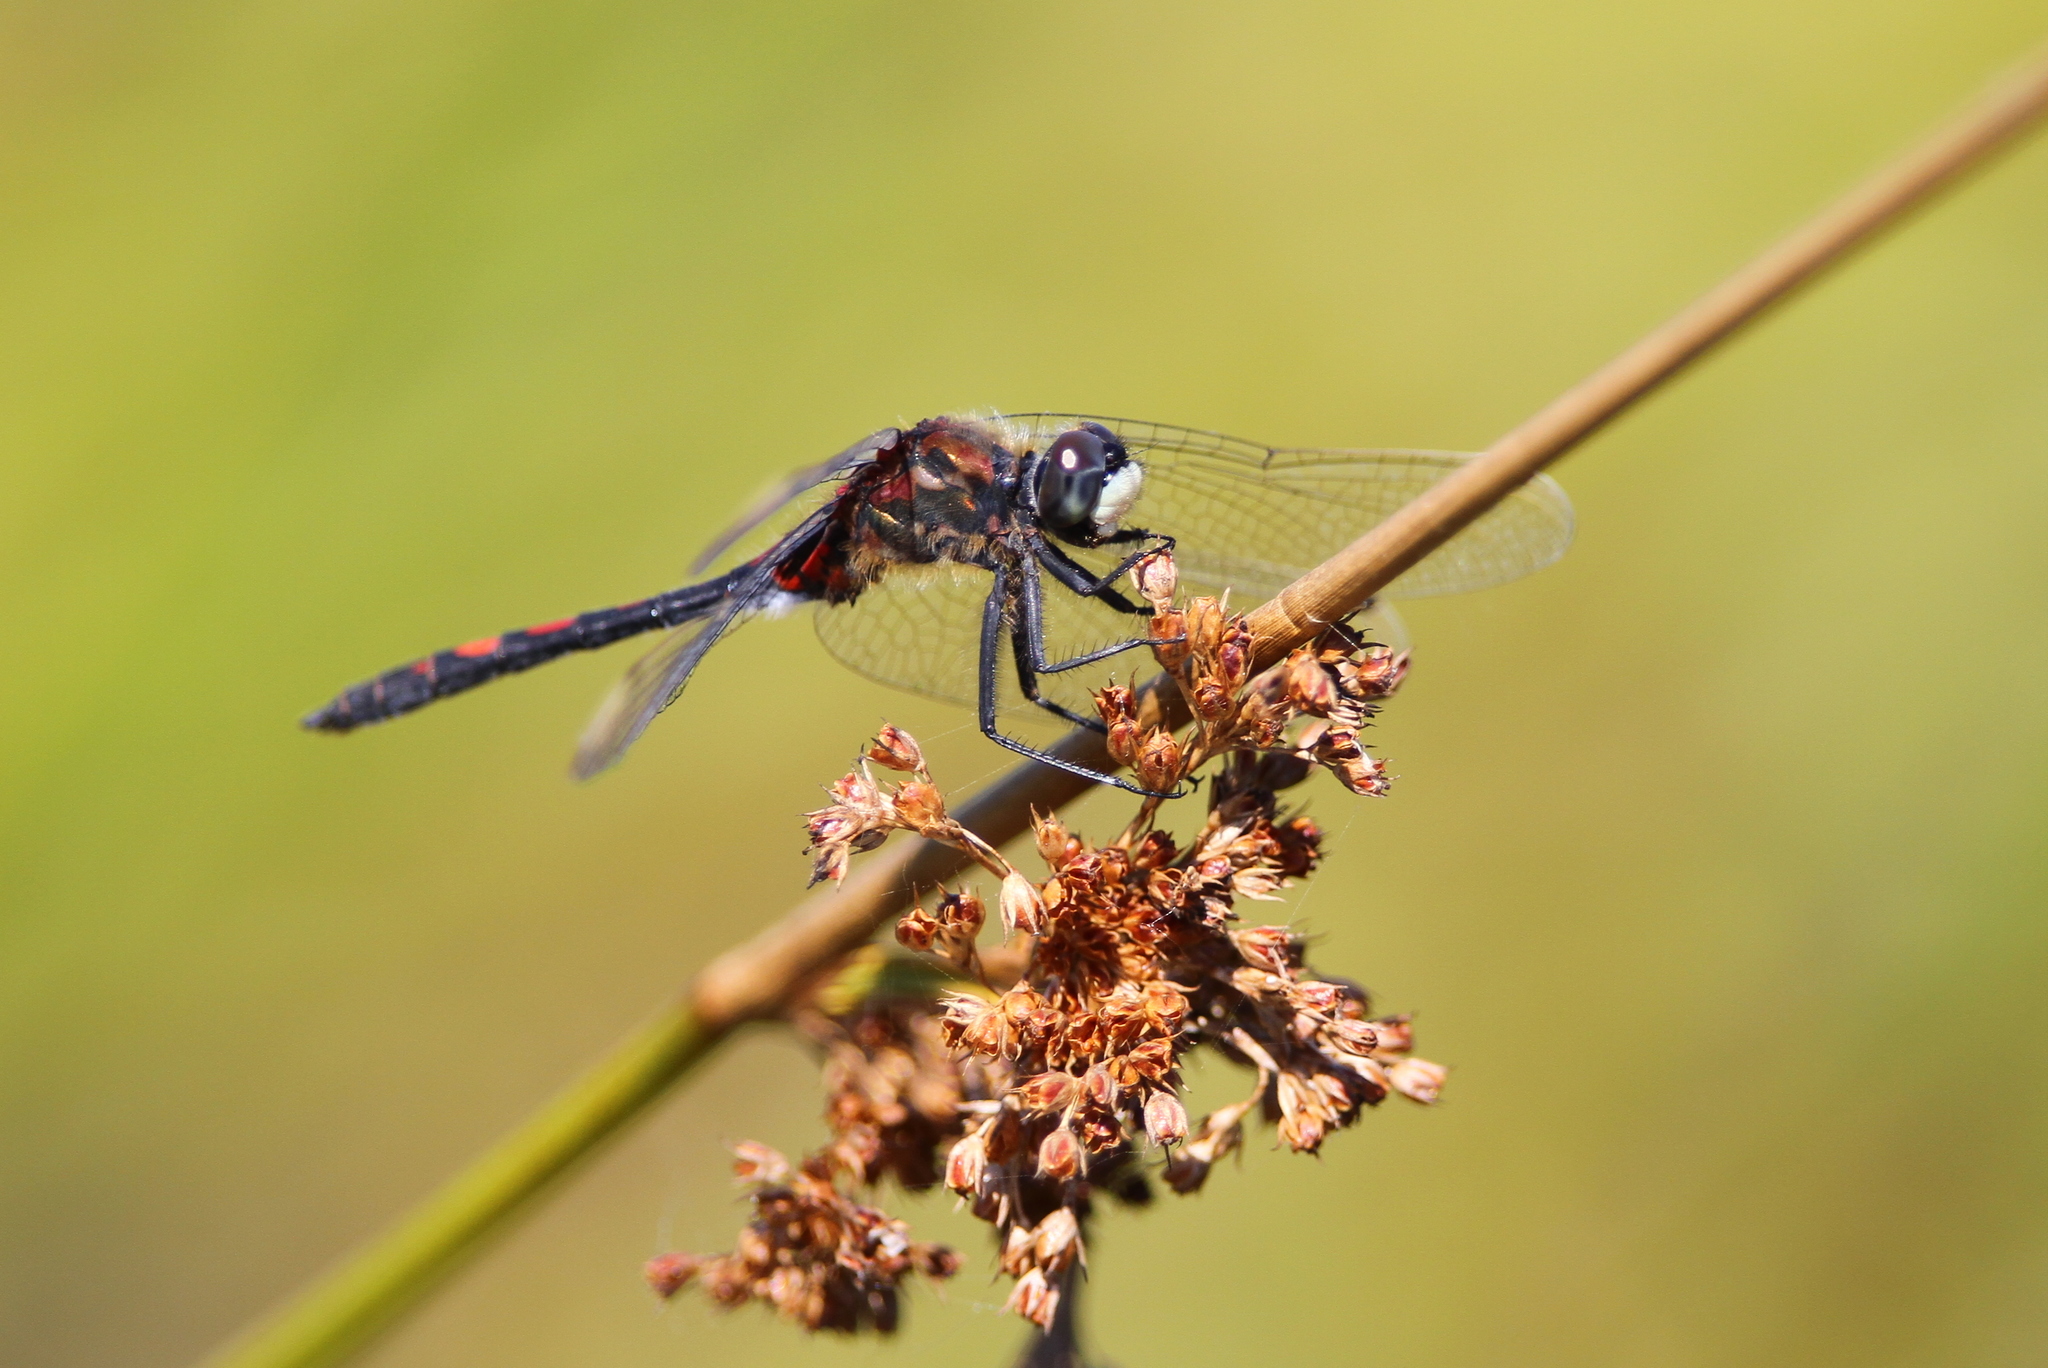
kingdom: Animalia
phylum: Arthropoda
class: Insecta
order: Odonata
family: Libellulidae
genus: Leucorrhinia
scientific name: Leucorrhinia dubia
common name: White-faced darter
